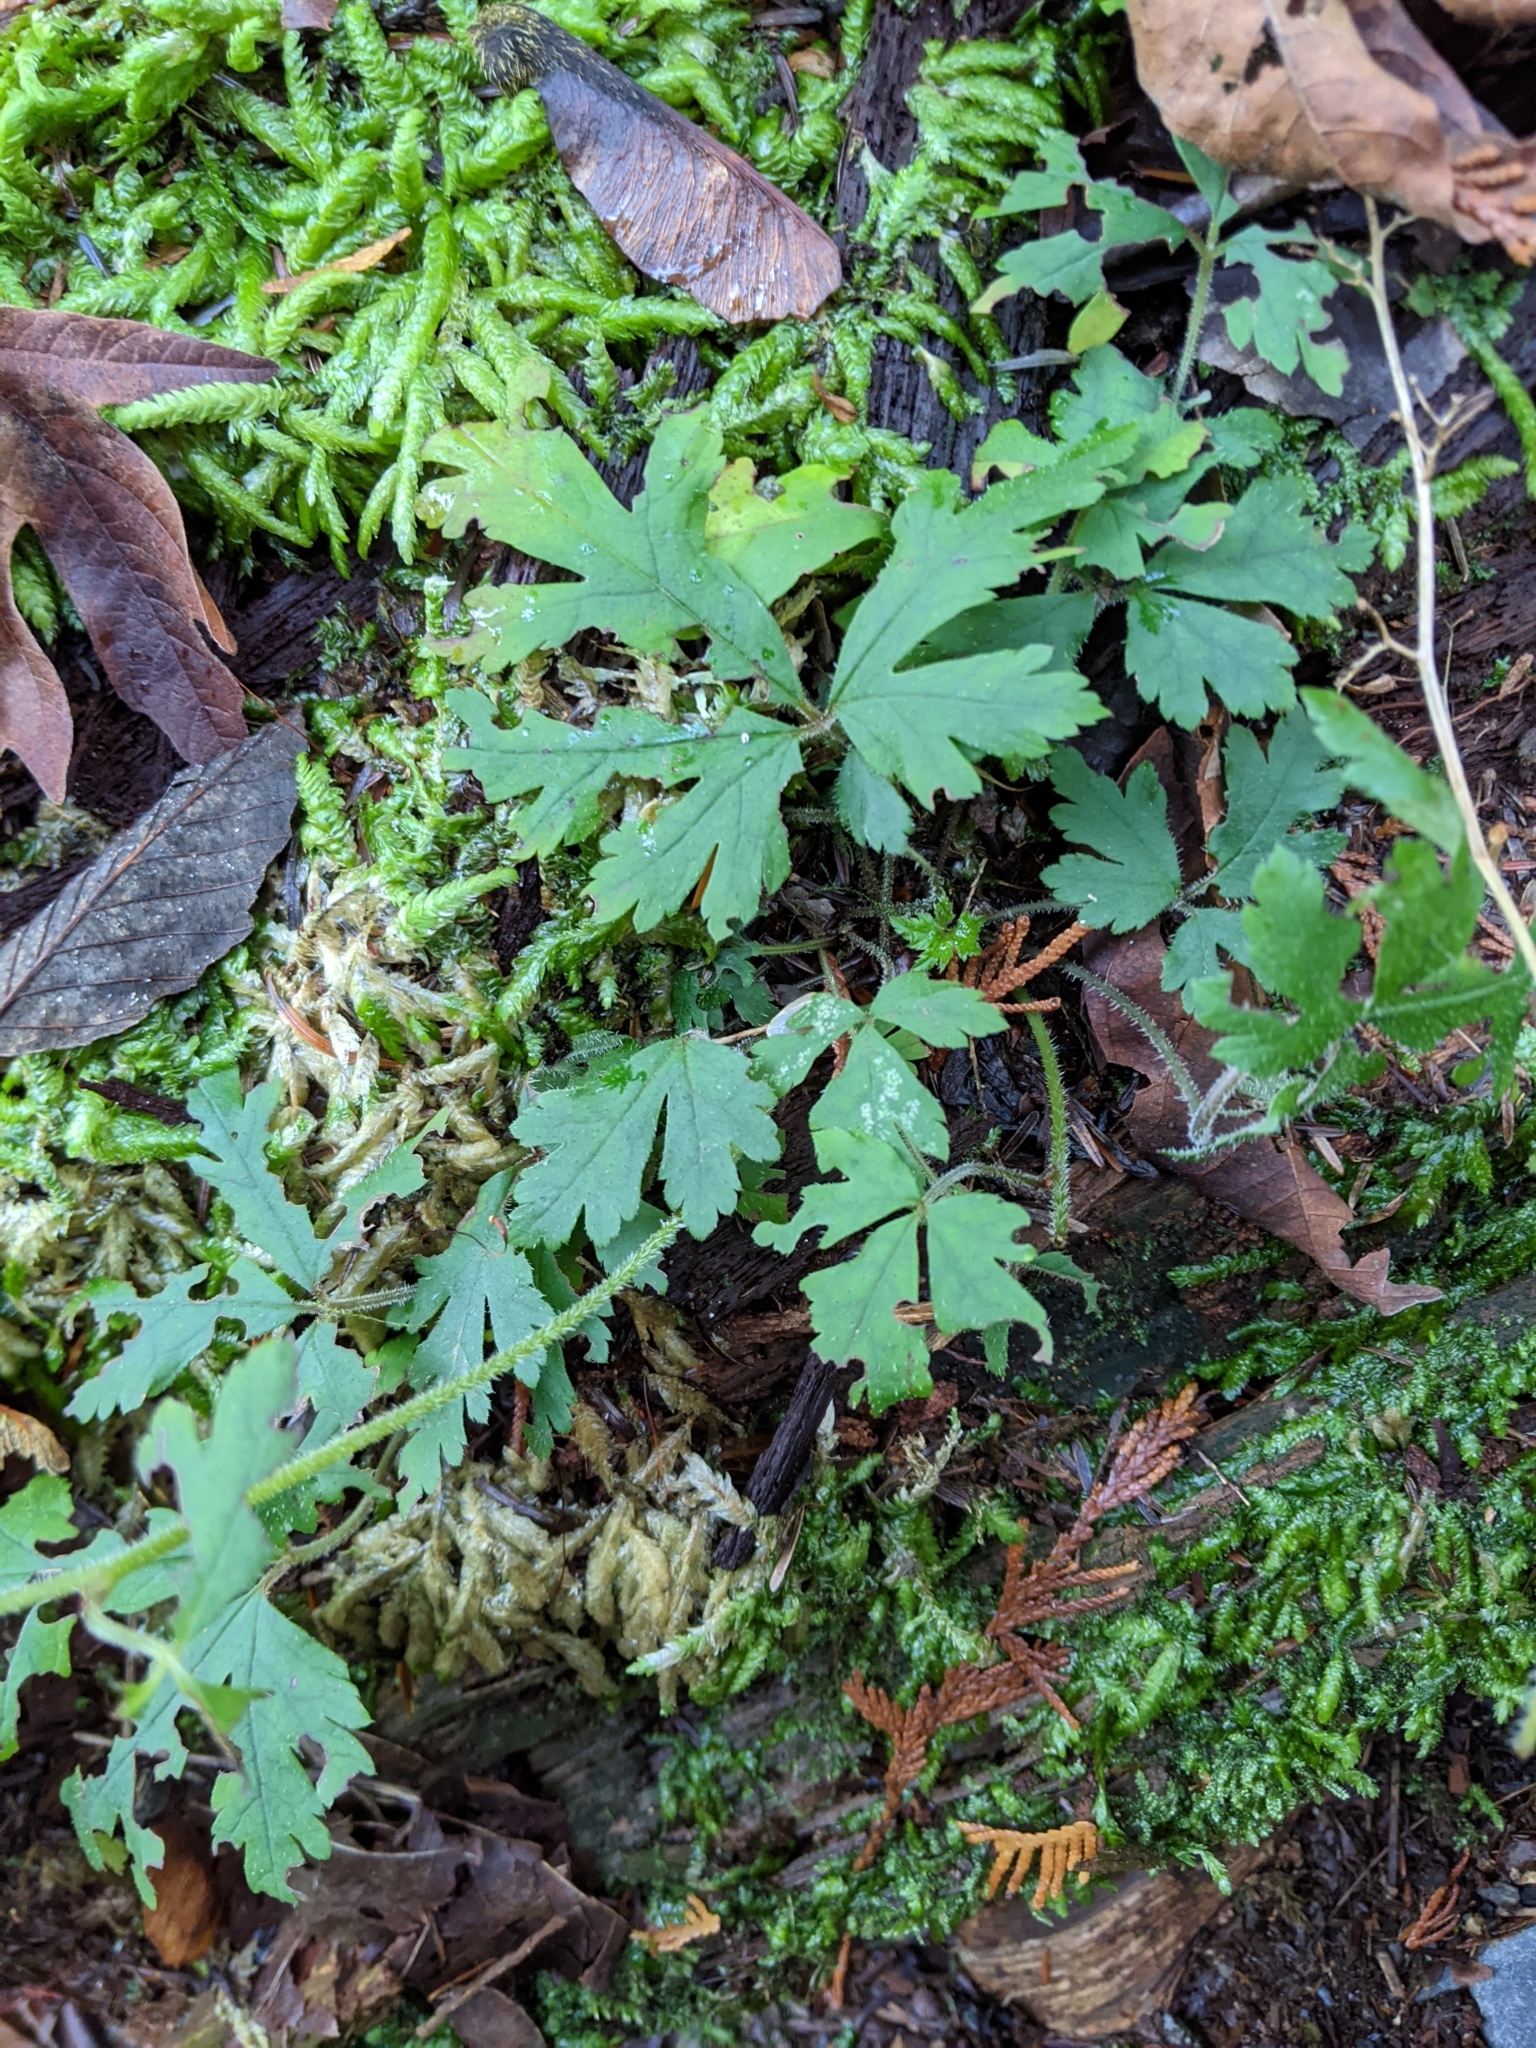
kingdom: Plantae
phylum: Tracheophyta
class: Magnoliopsida
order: Ranunculales
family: Ranunculaceae
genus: Ranunculus
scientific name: Ranunculus repens
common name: Creeping buttercup
